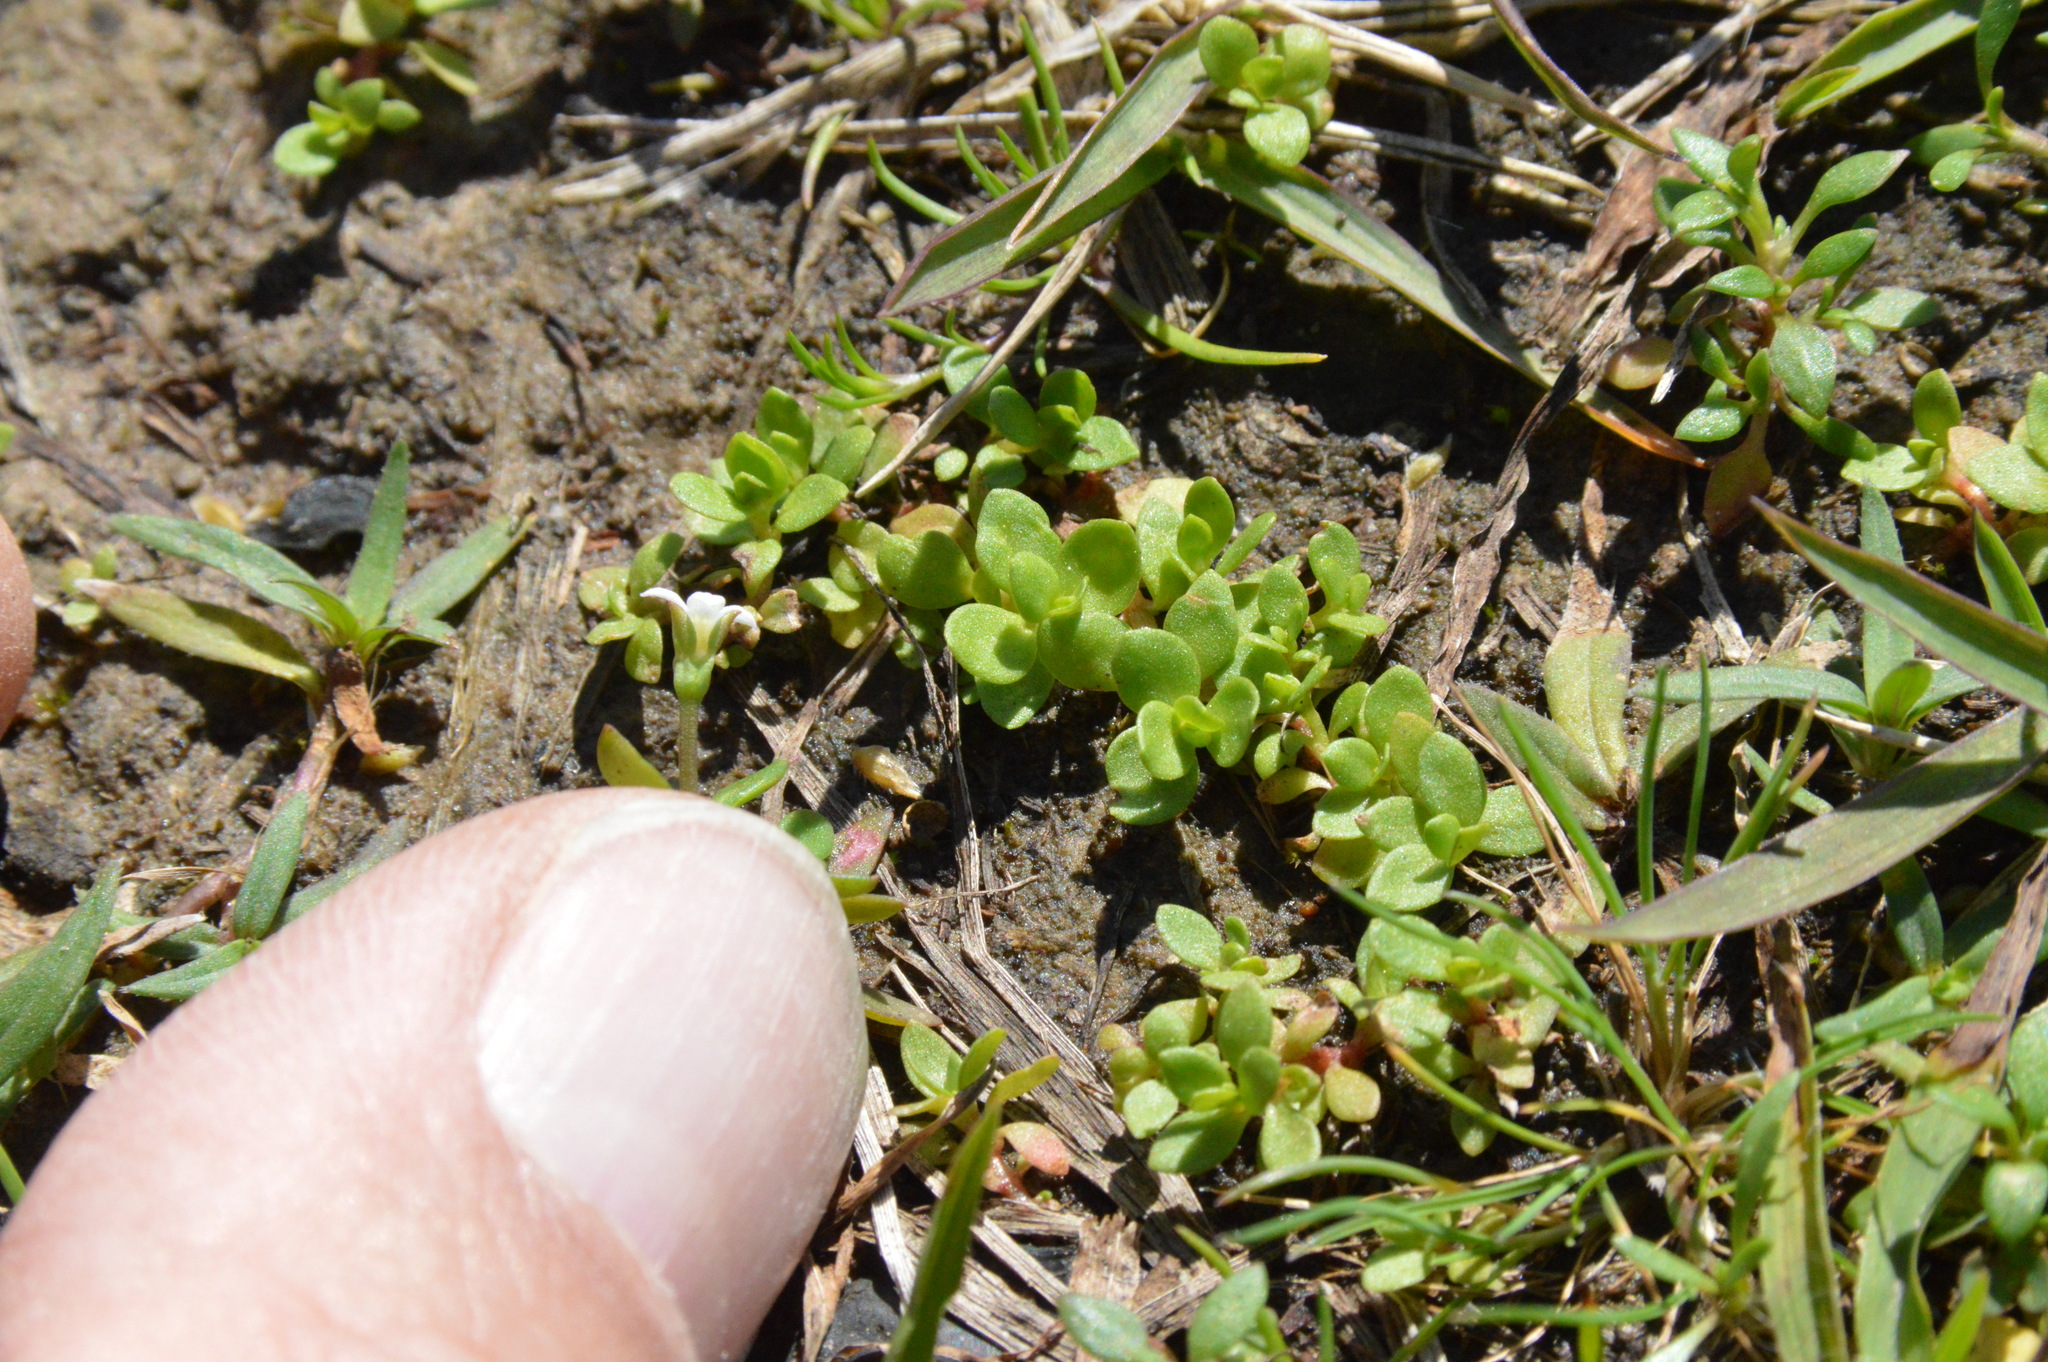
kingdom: Plantae
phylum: Tracheophyta
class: Magnoliopsida
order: Gentianales
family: Rubiaceae
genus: Houstonia
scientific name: Houstonia micrantha
